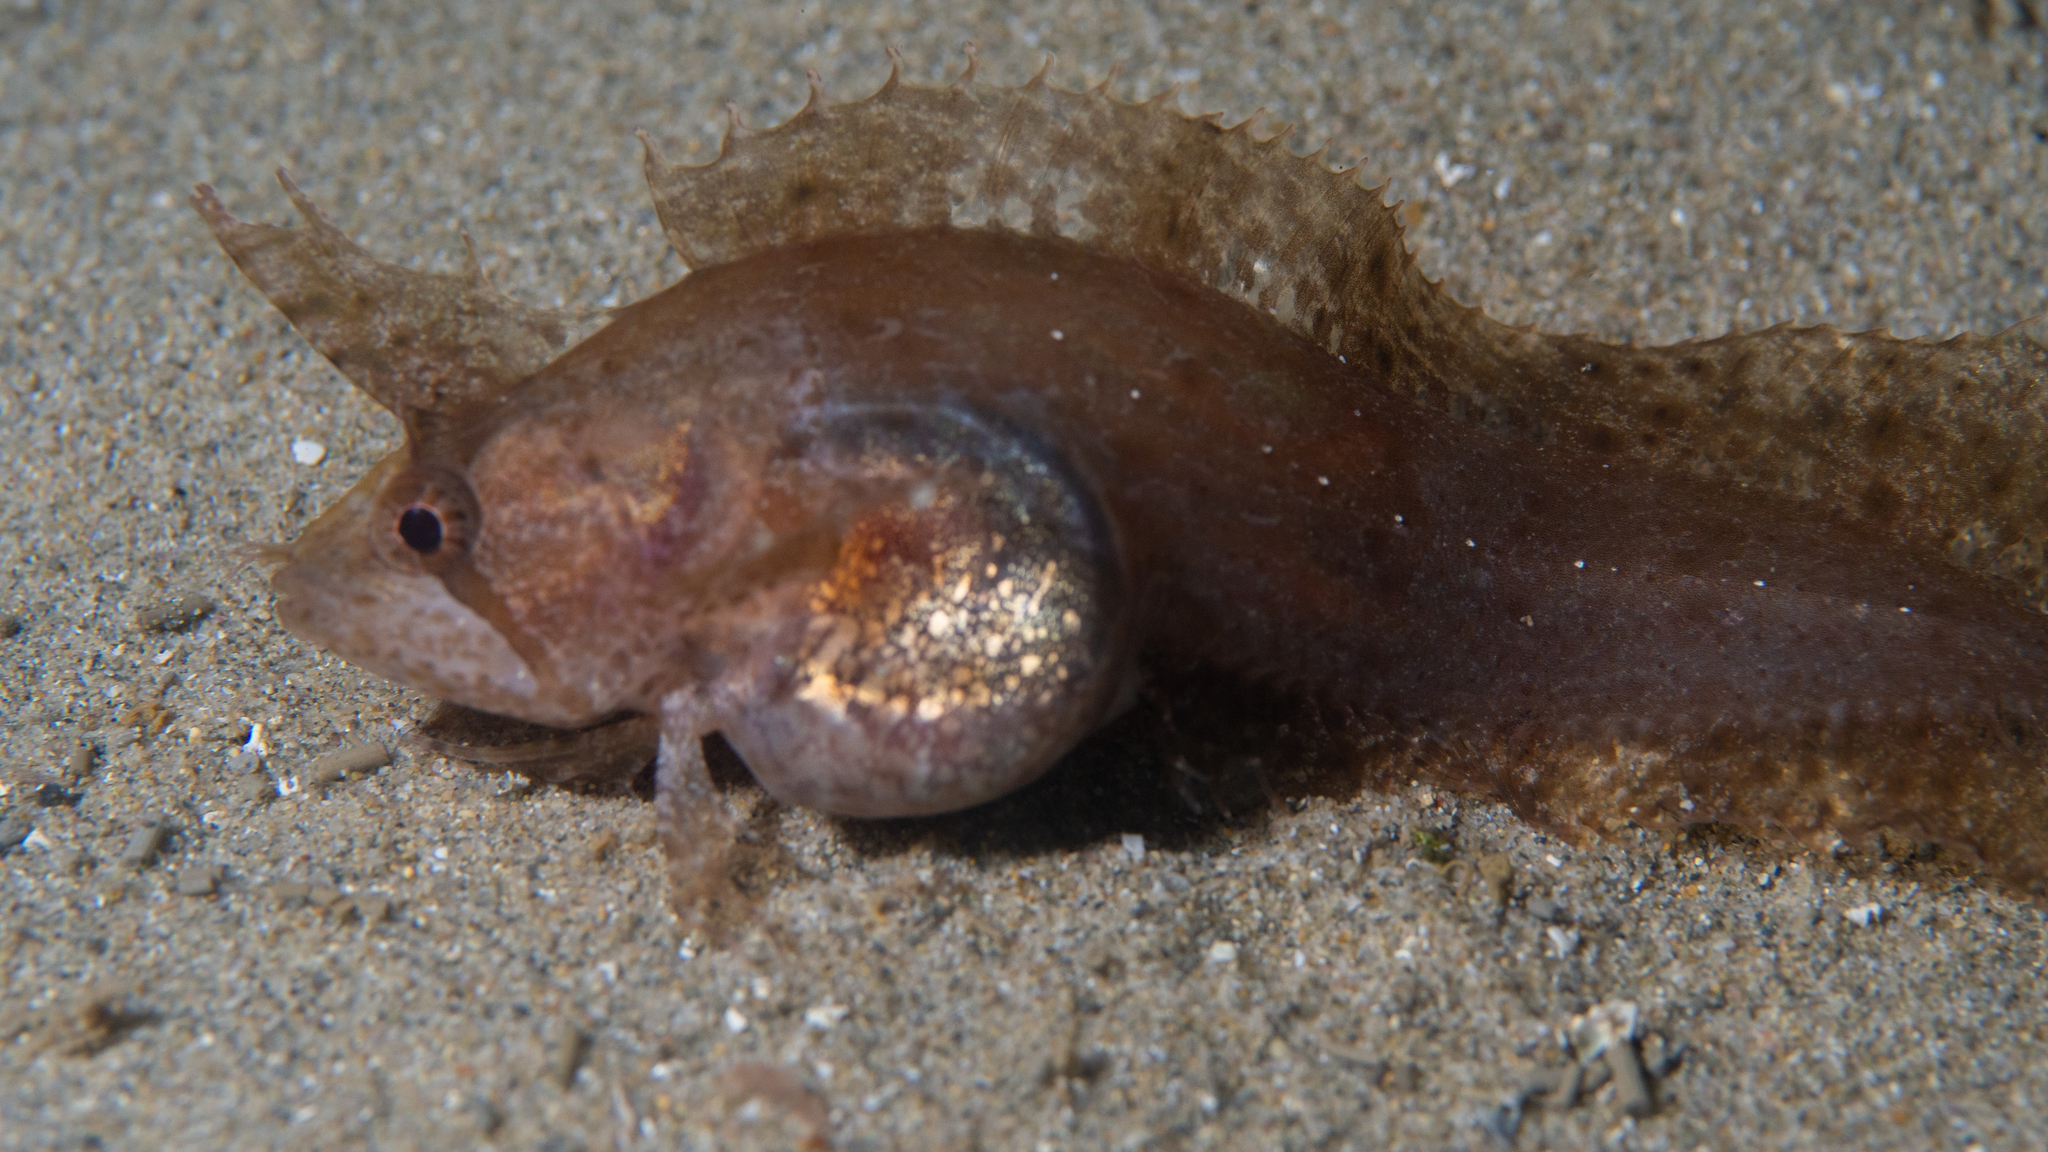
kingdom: Animalia
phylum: Chordata
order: Perciformes
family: Clinidae
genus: Cristiceps
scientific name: Cristiceps australis
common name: Crested weedfish
